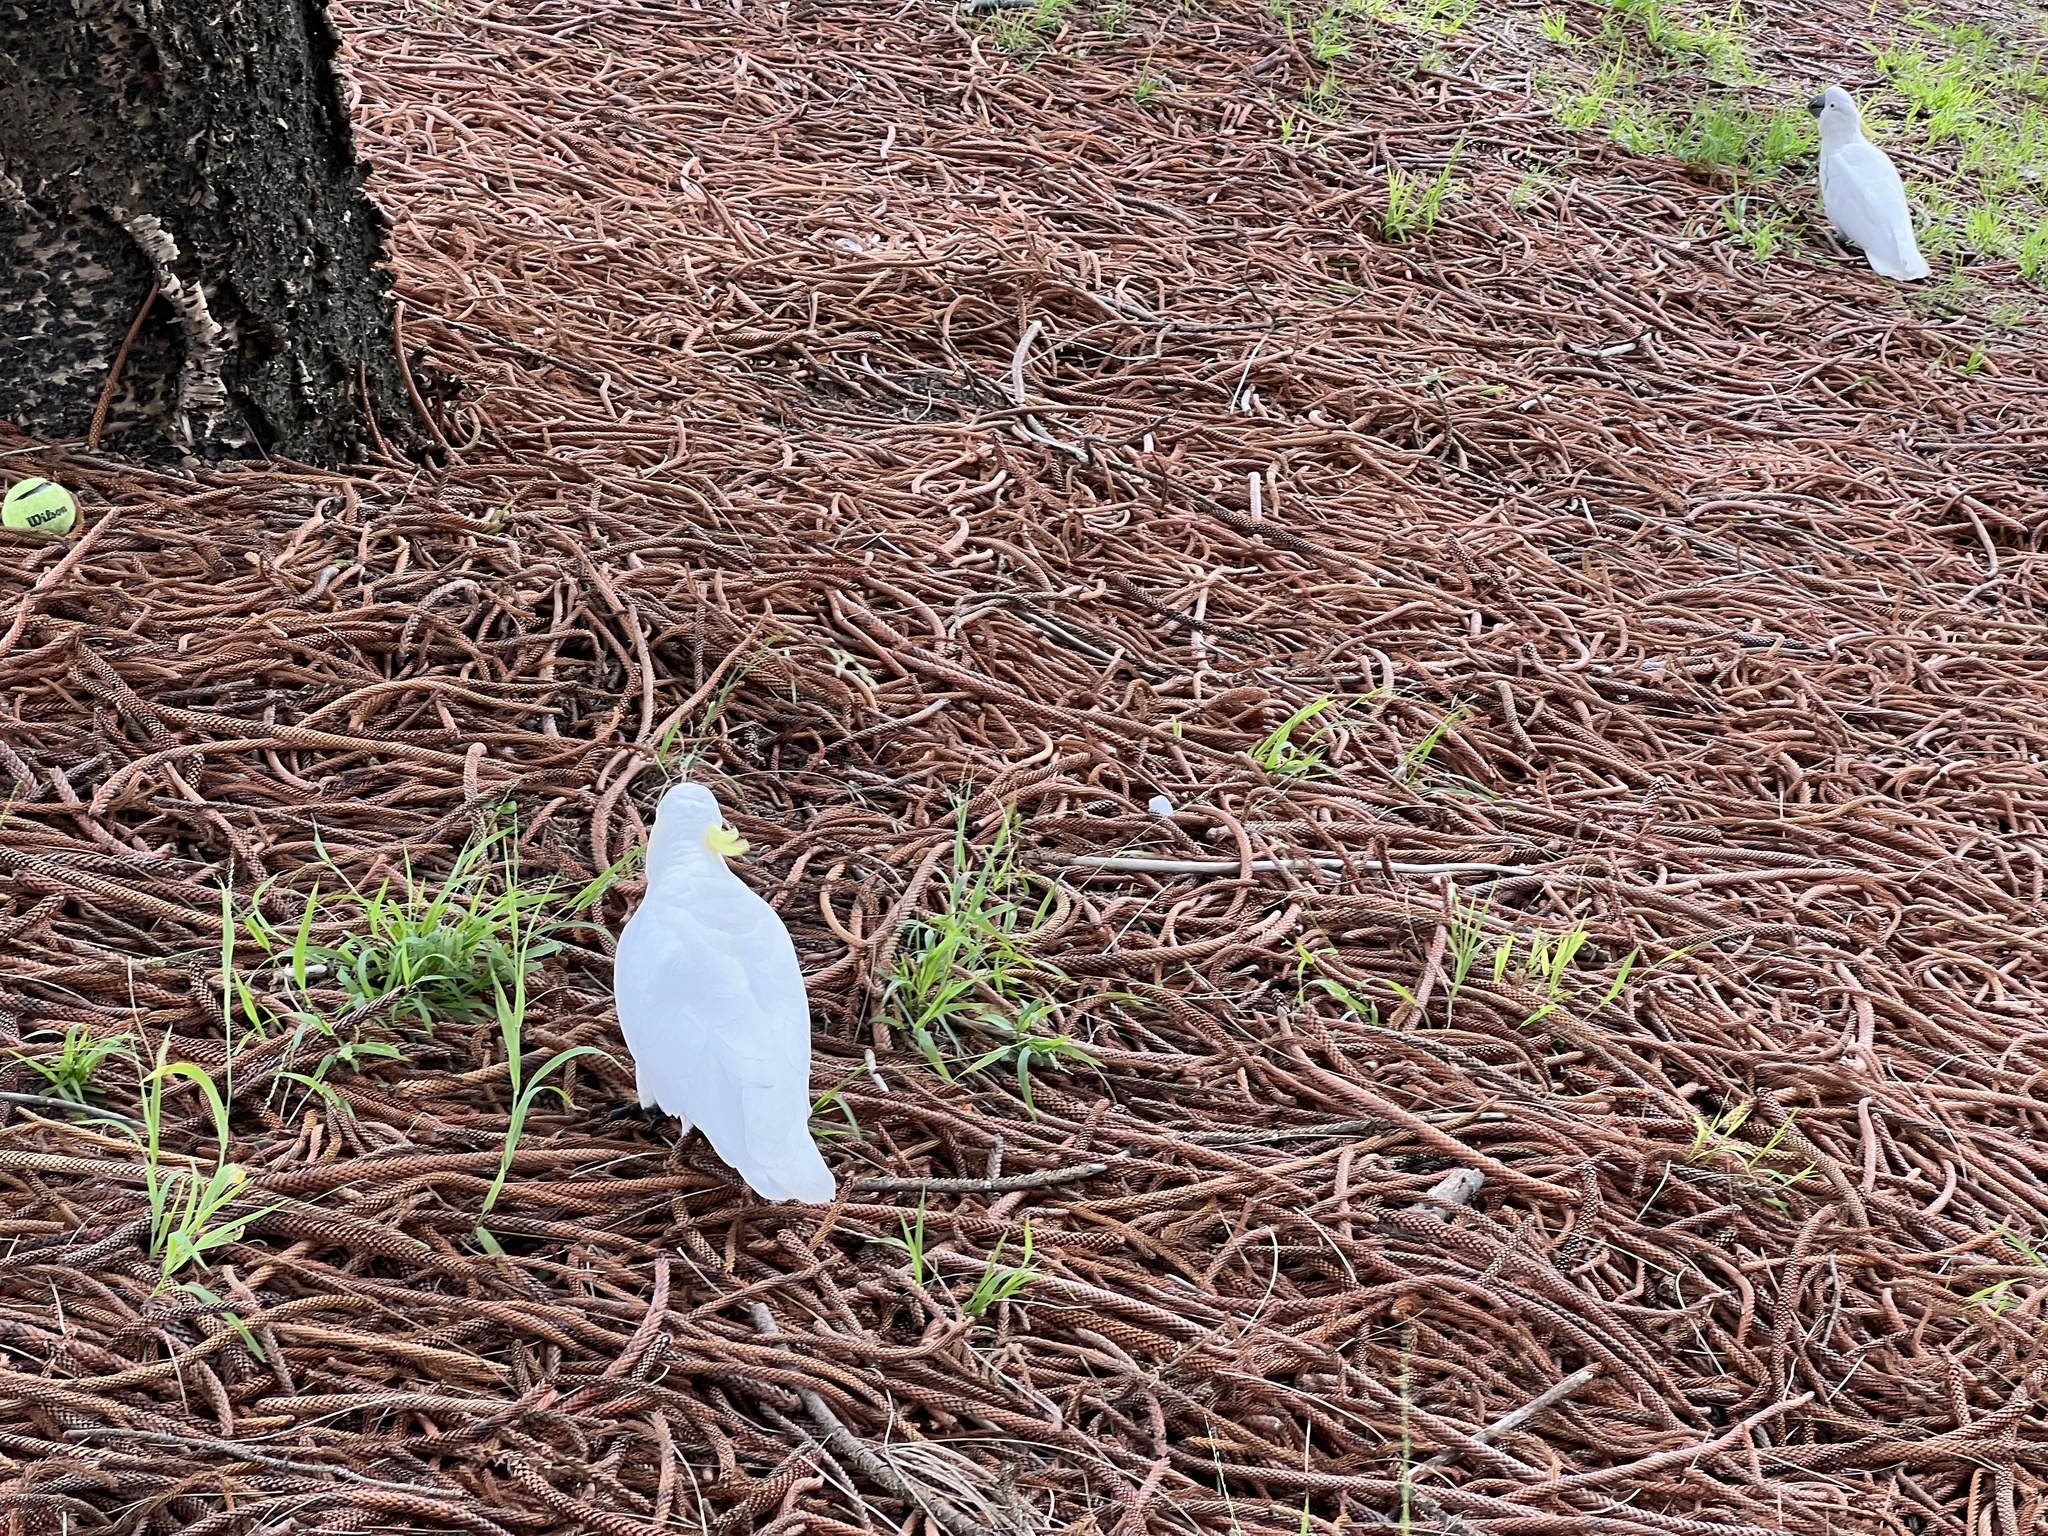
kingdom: Animalia
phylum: Chordata
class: Aves
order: Psittaciformes
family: Psittacidae
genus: Cacatua
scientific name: Cacatua galerita
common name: Sulphur-crested cockatoo
